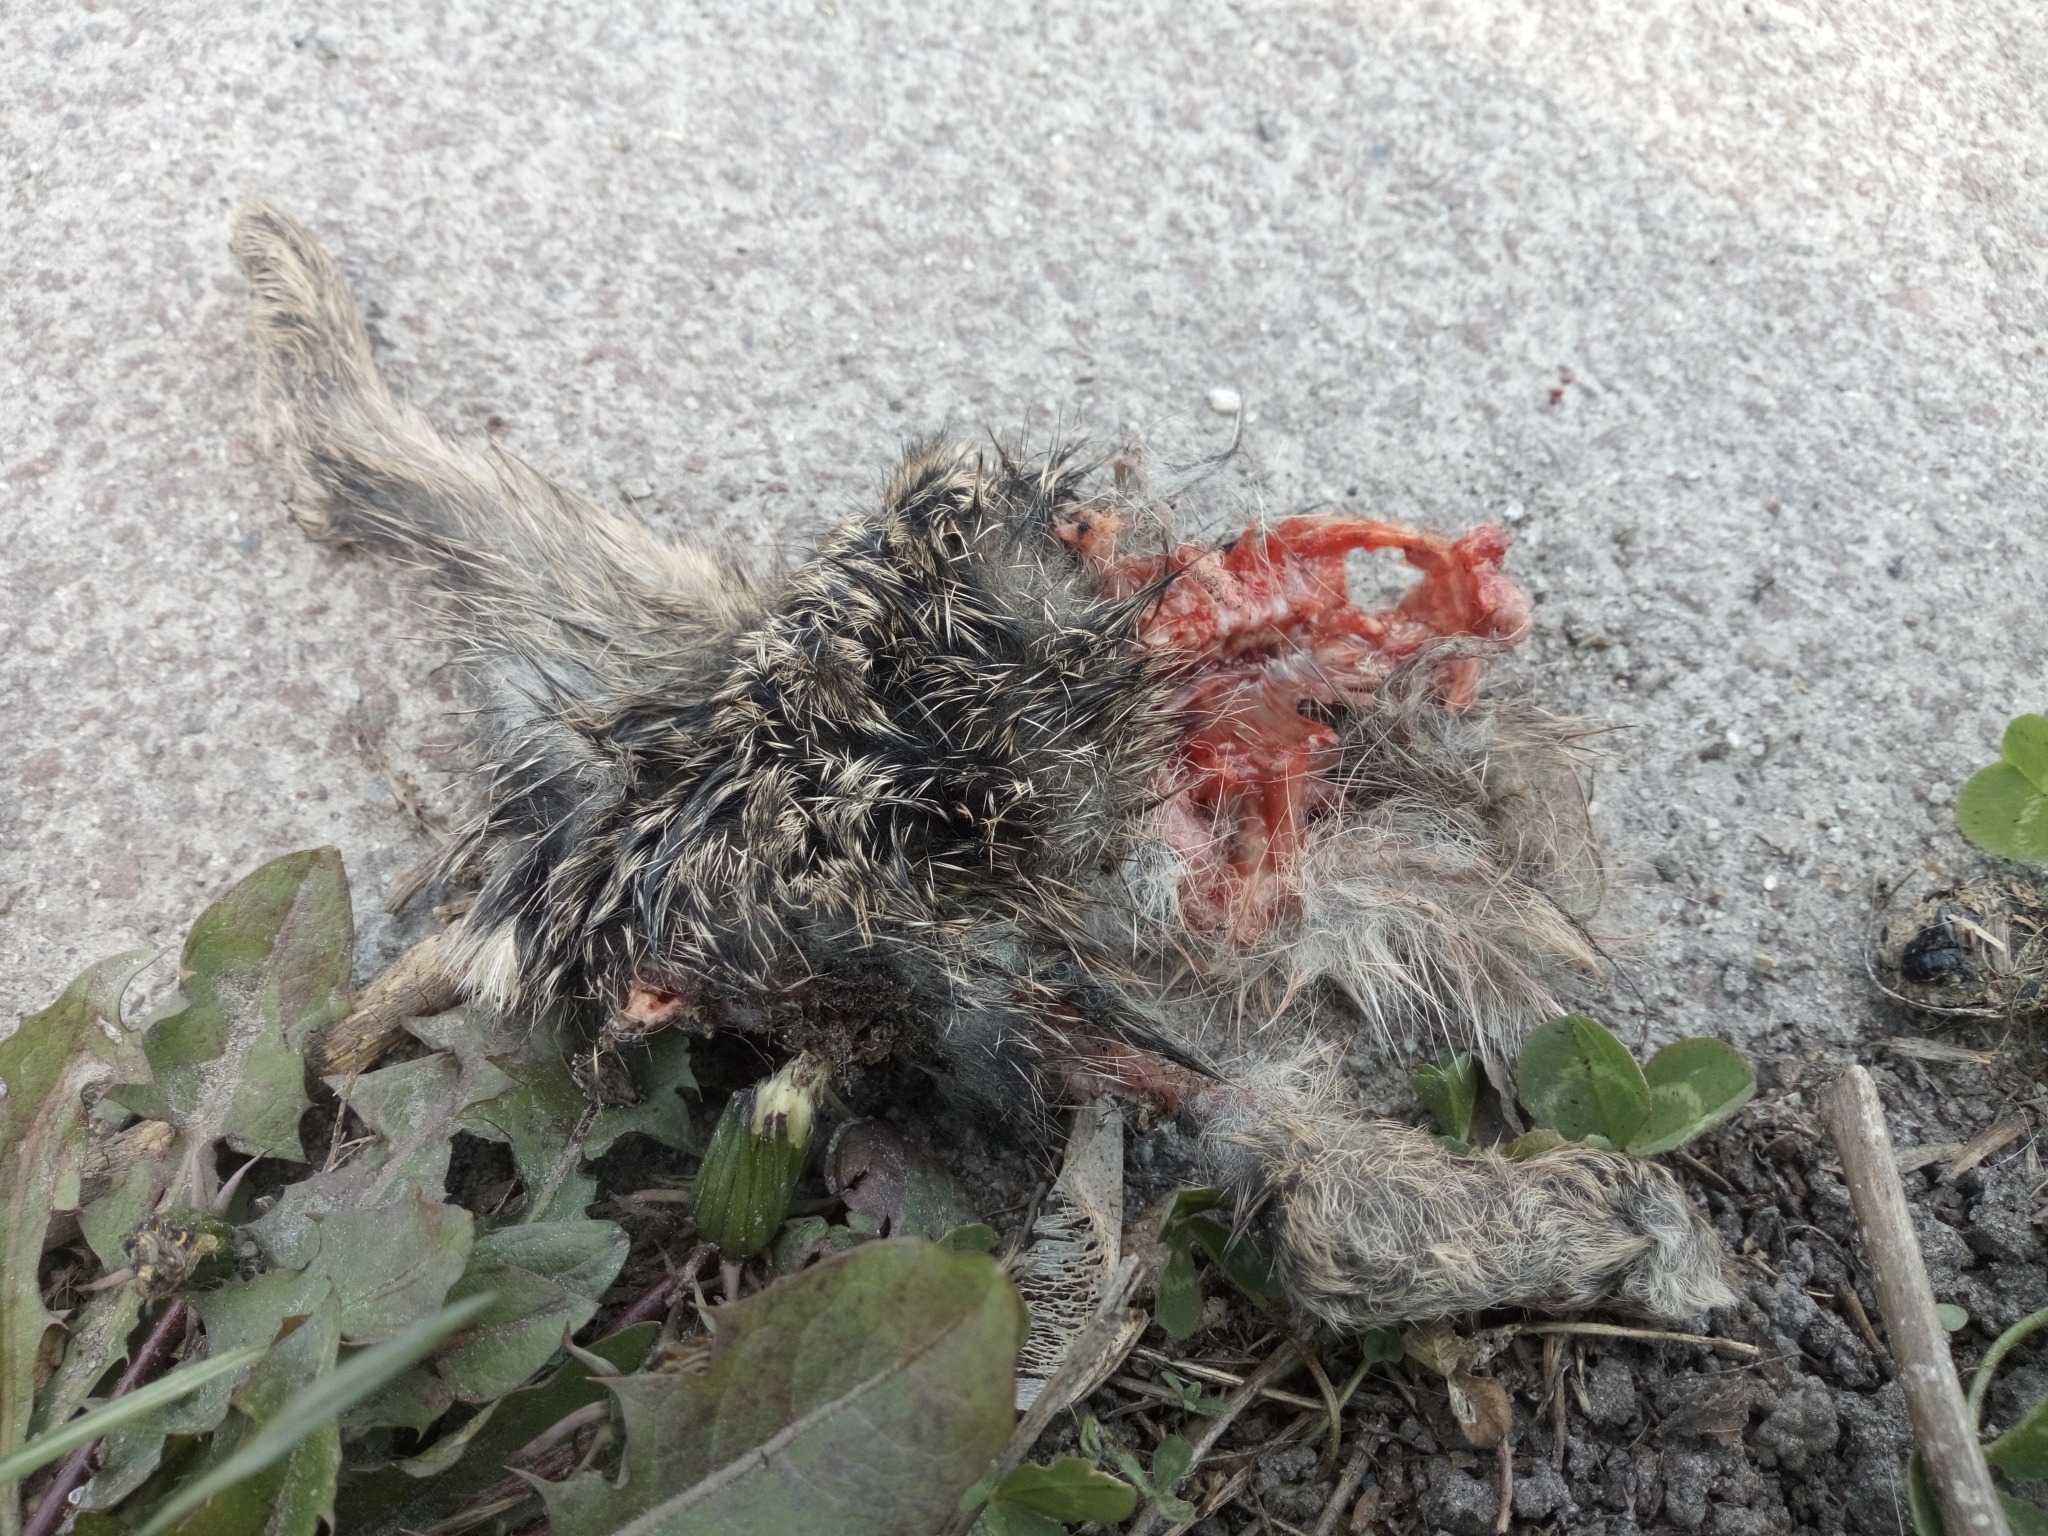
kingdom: Animalia
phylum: Chordata
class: Mammalia
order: Lagomorpha
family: Leporidae
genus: Lepus
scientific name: Lepus europaeus
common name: European hare
